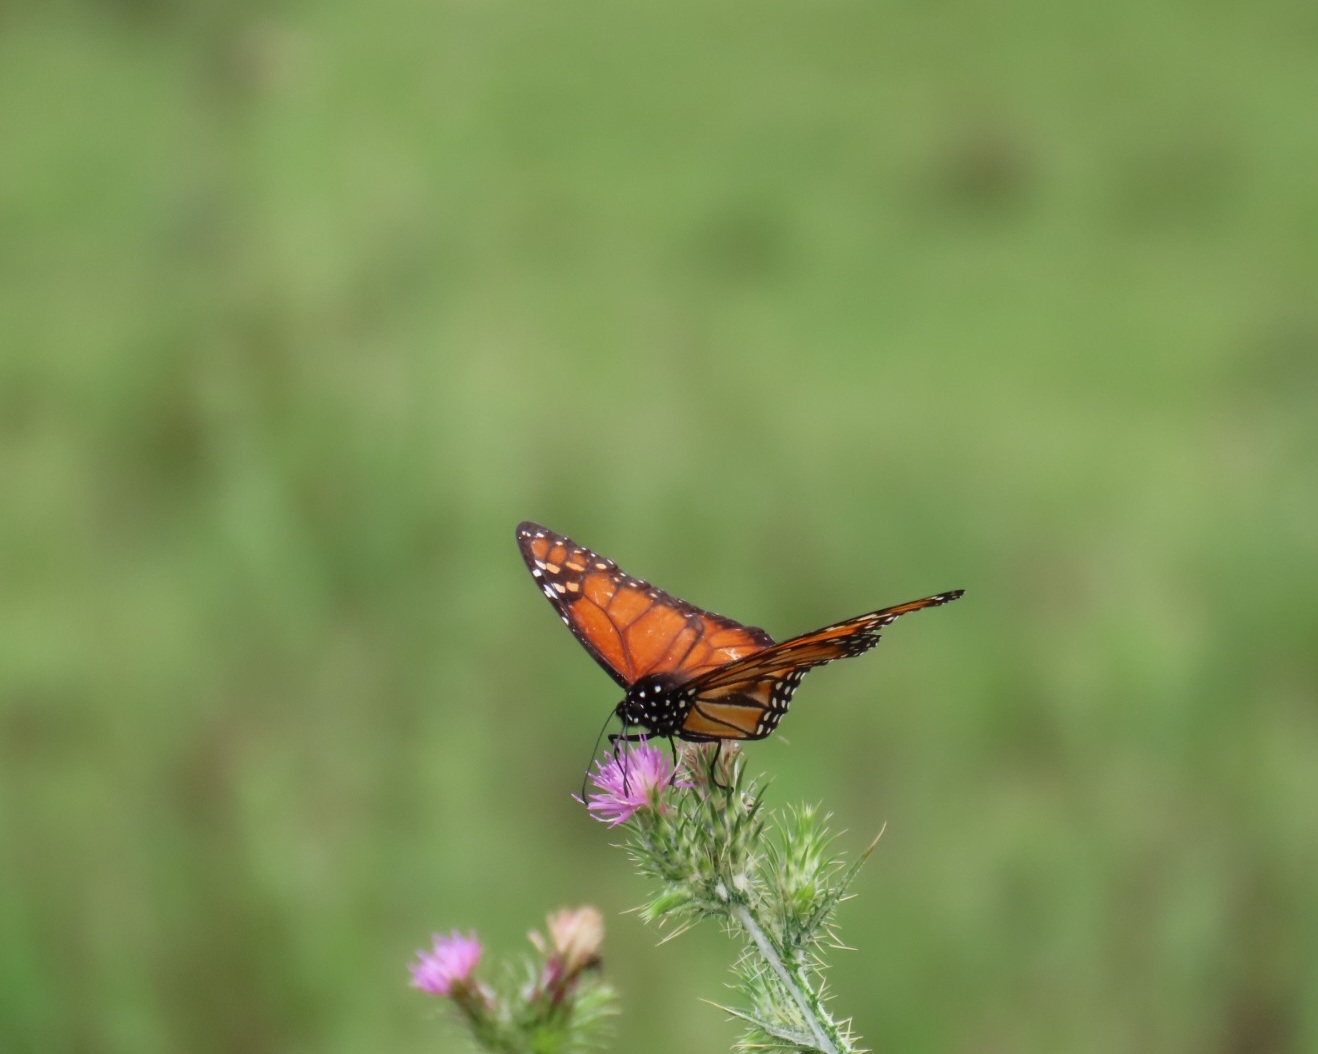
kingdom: Animalia
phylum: Arthropoda
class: Insecta
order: Lepidoptera
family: Nymphalidae
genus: Danaus
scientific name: Danaus erippus
